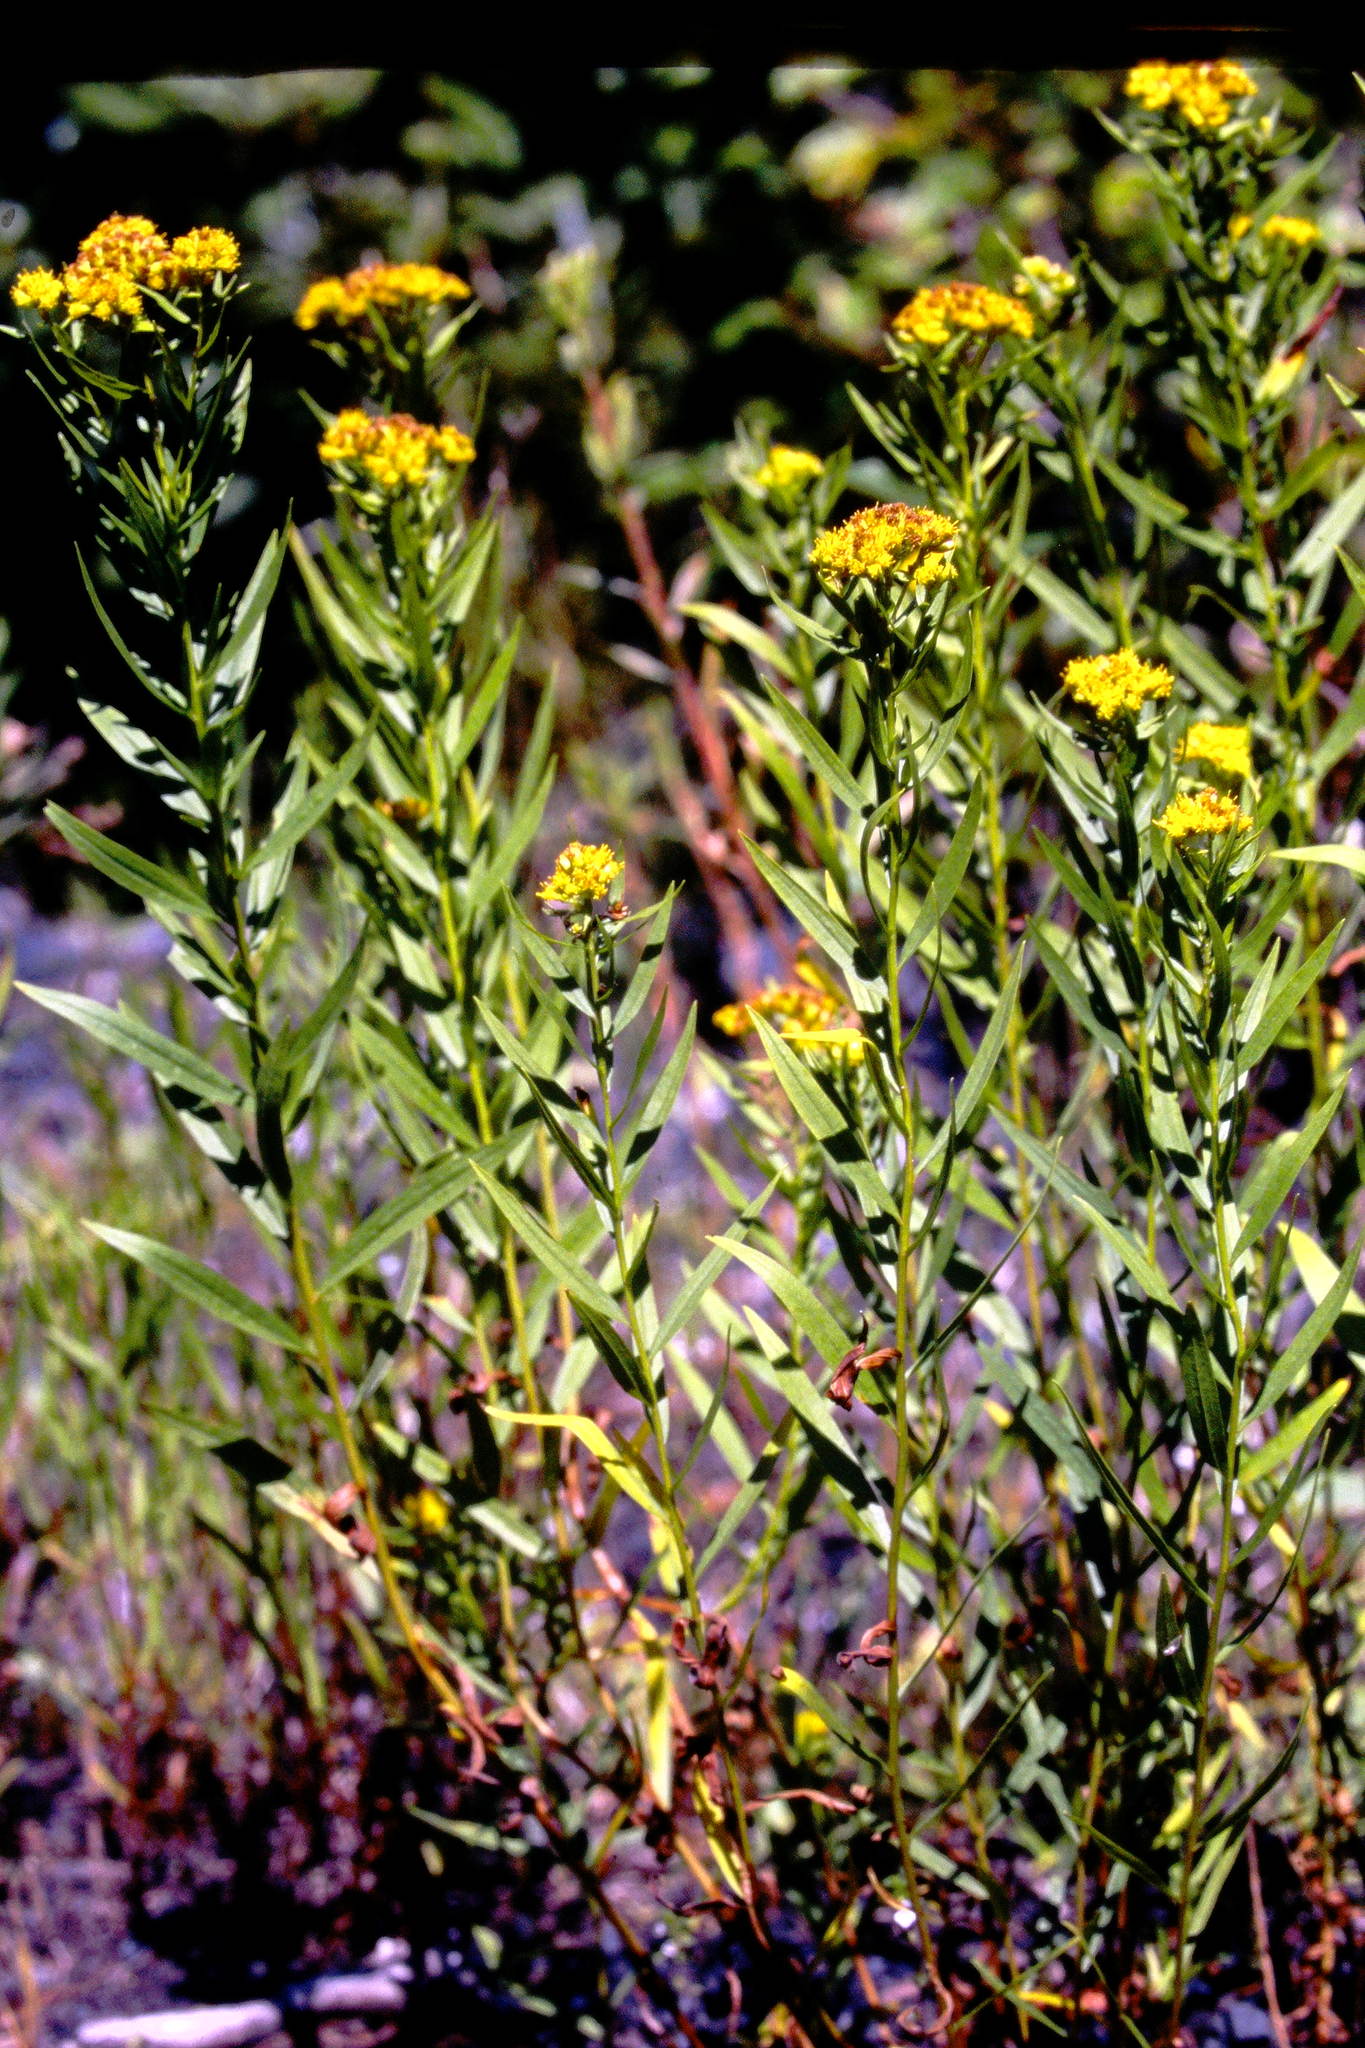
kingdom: Plantae
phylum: Tracheophyta
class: Magnoliopsida
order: Asterales
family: Asteraceae
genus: Euthamia
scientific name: Euthamia graminifolia
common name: Common goldentop
